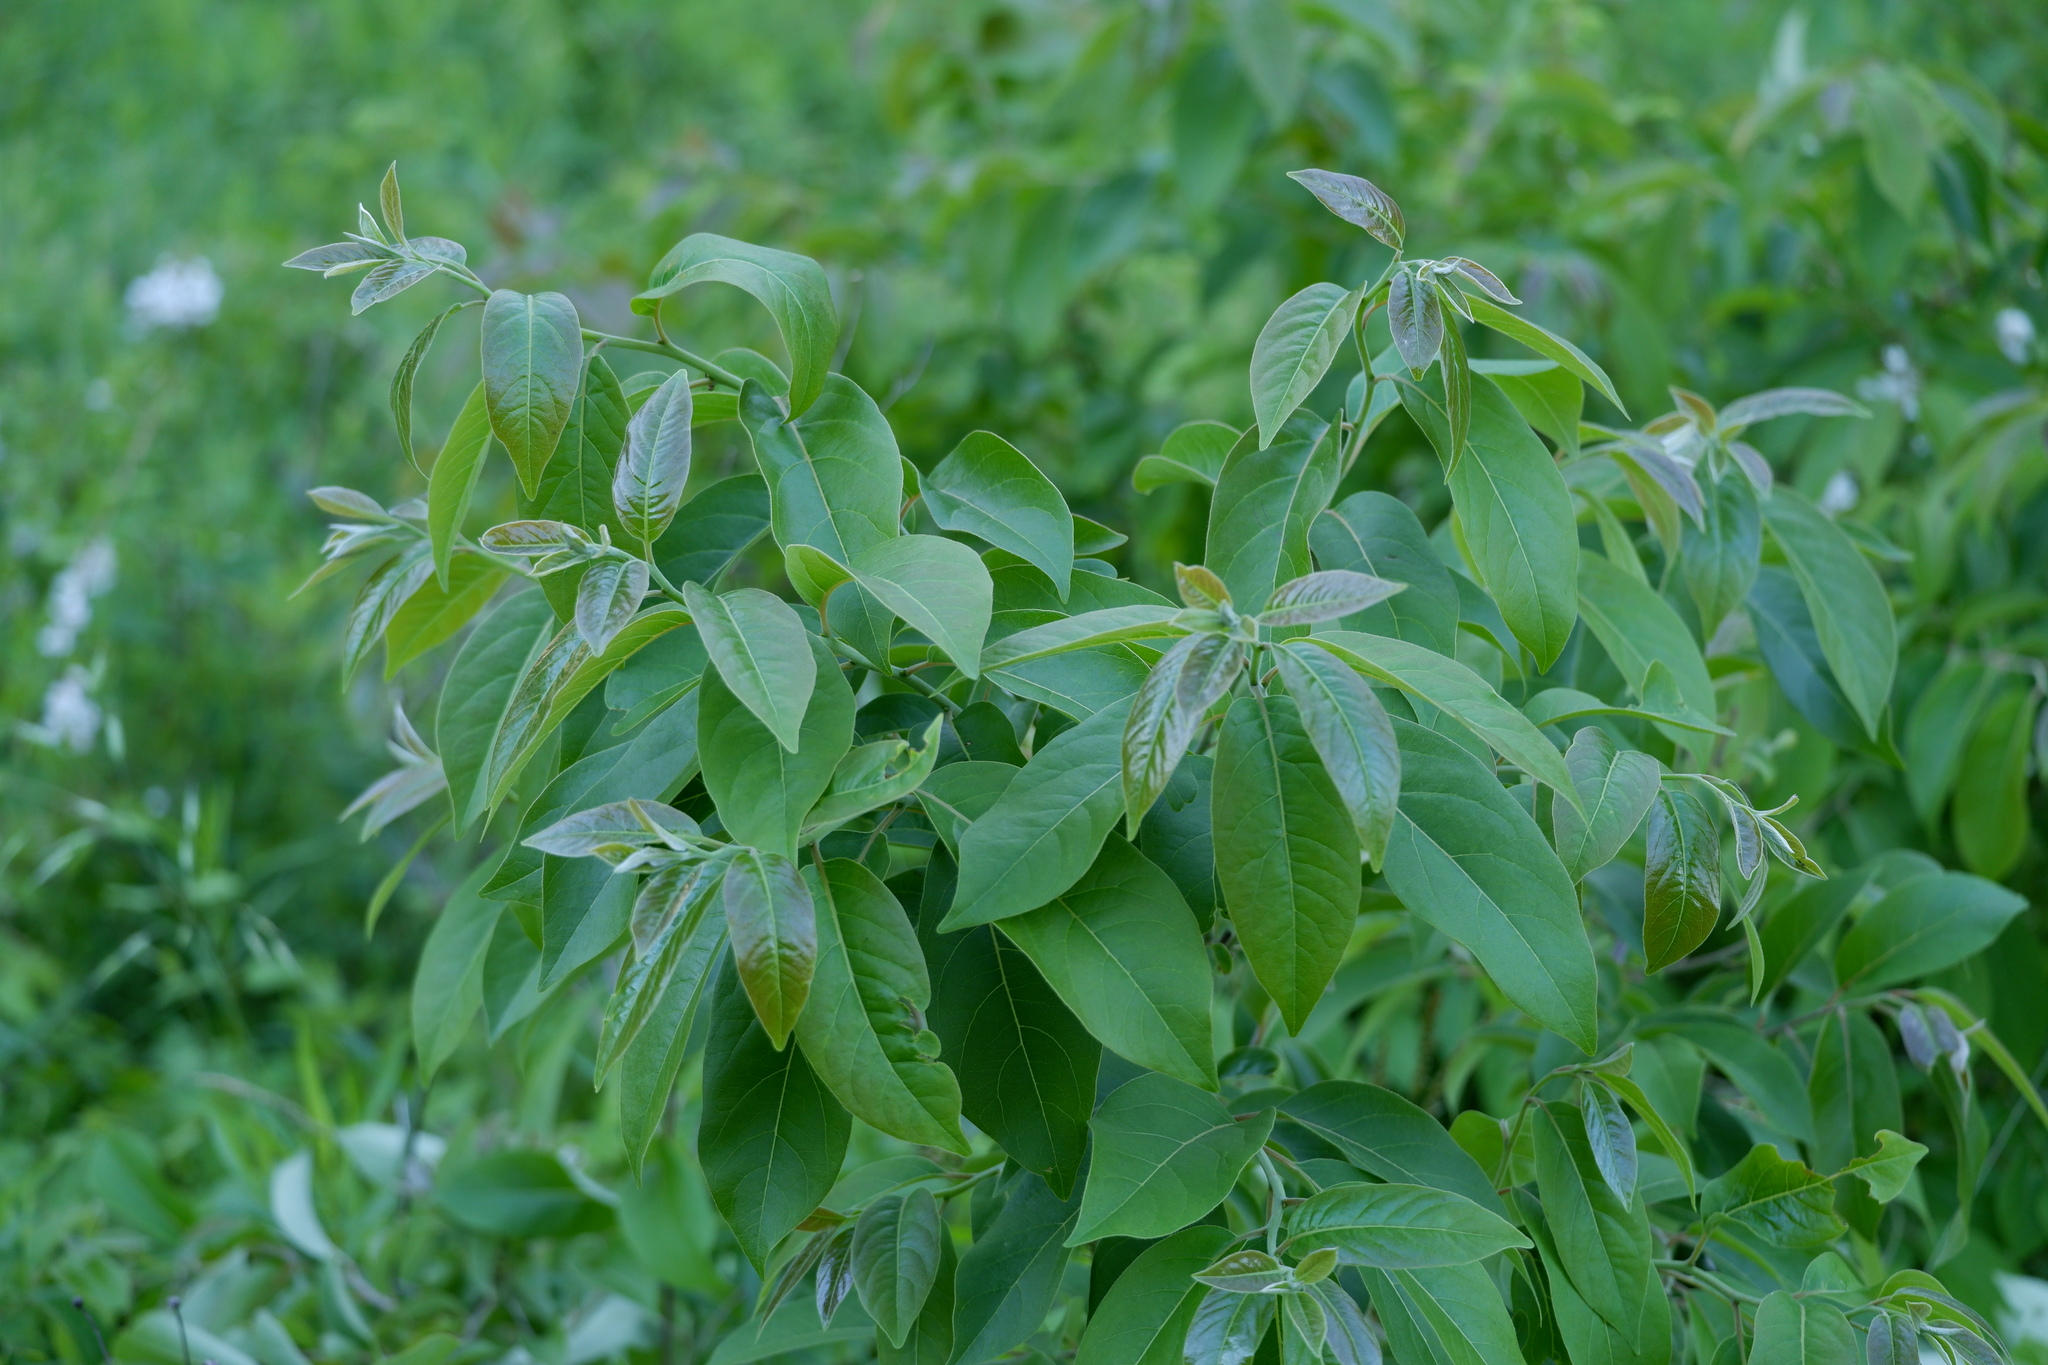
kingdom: Plantae
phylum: Tracheophyta
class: Magnoliopsida
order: Ericales
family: Ebenaceae
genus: Diospyros
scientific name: Diospyros virginiana
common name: Persimmon
